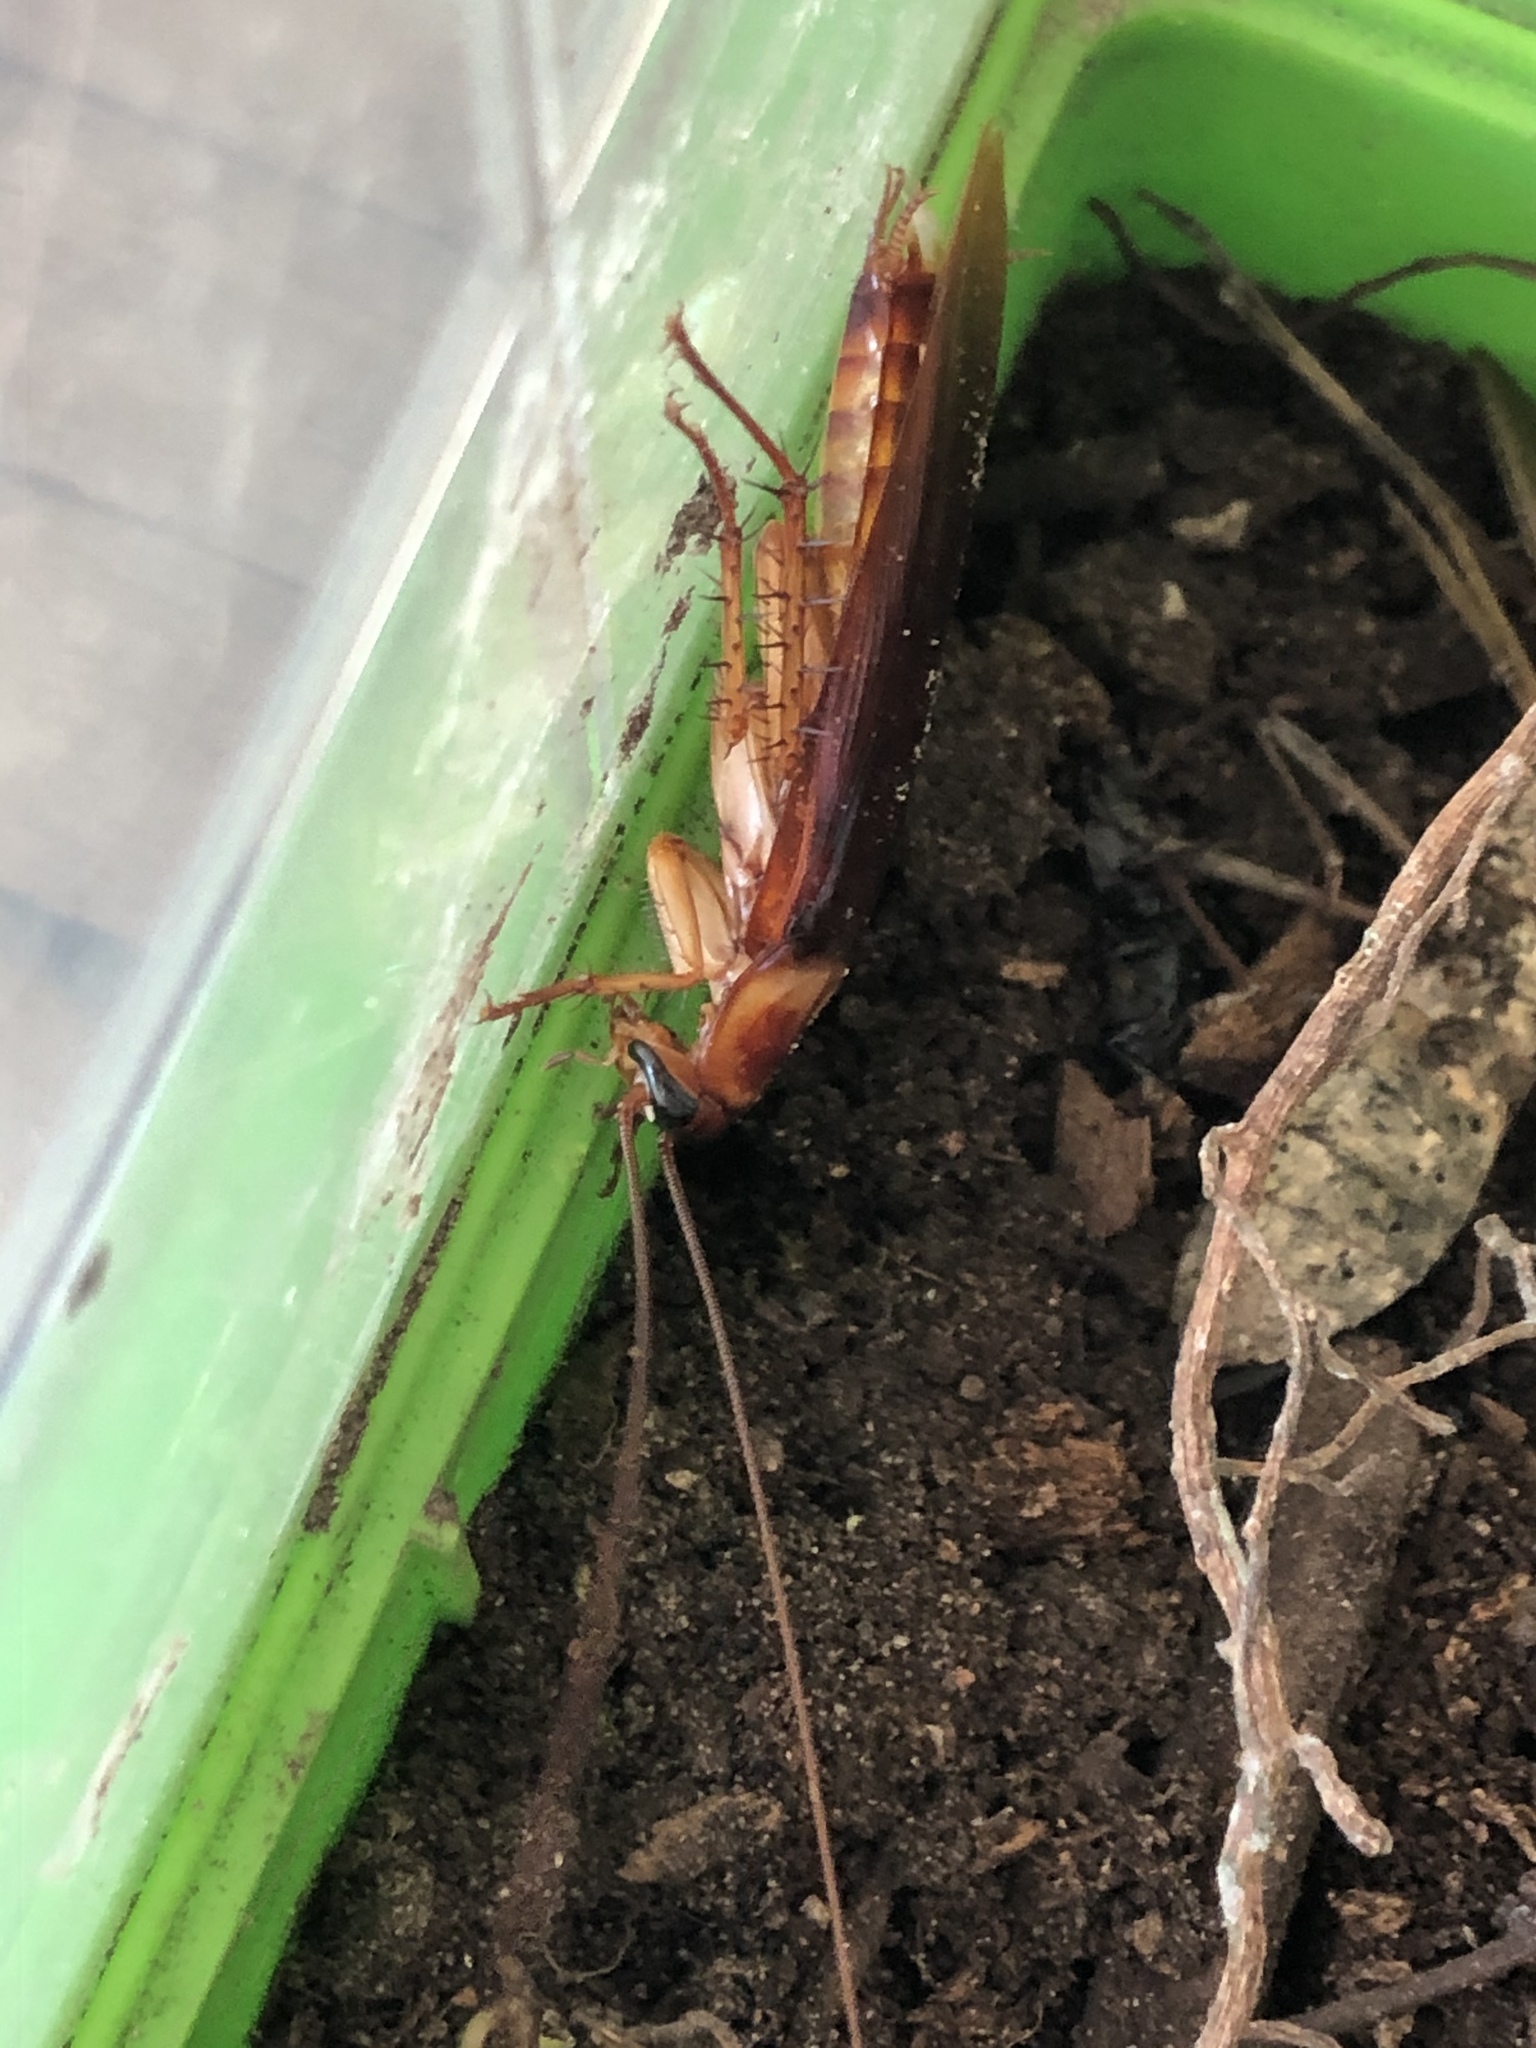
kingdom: Animalia
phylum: Arthropoda
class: Insecta
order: Blattodea
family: Blattidae
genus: Periplaneta
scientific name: Periplaneta americana
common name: American cockroach
